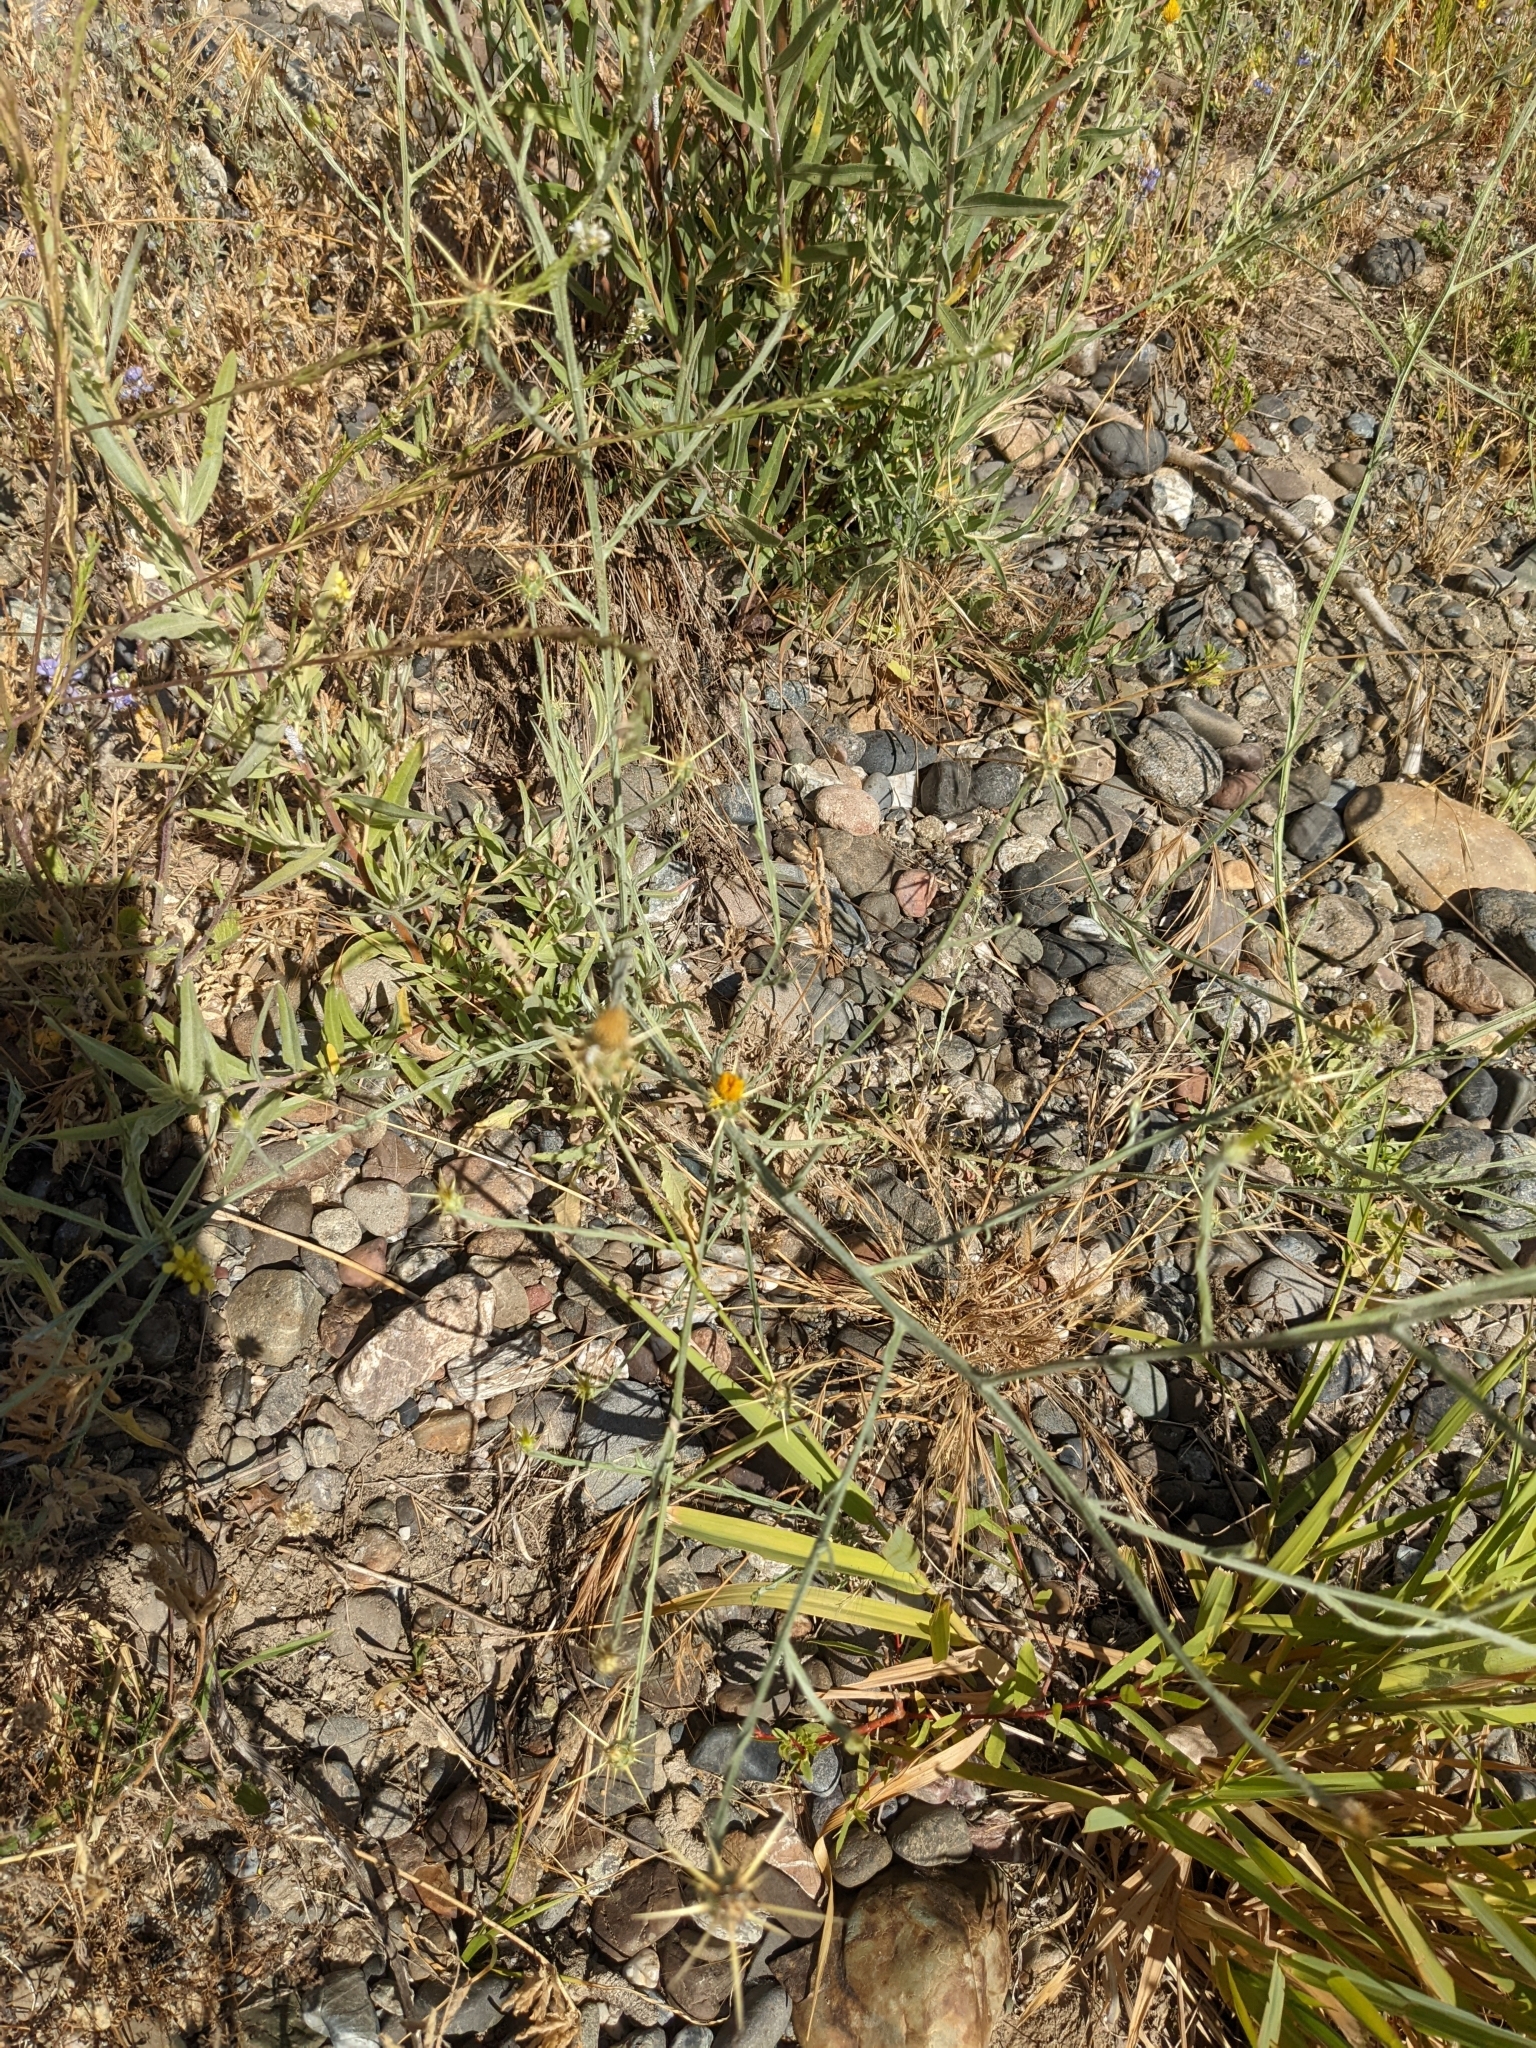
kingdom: Plantae
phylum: Tracheophyta
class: Magnoliopsida
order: Asterales
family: Asteraceae
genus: Centaurea
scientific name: Centaurea solstitialis
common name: Yellow star-thistle
